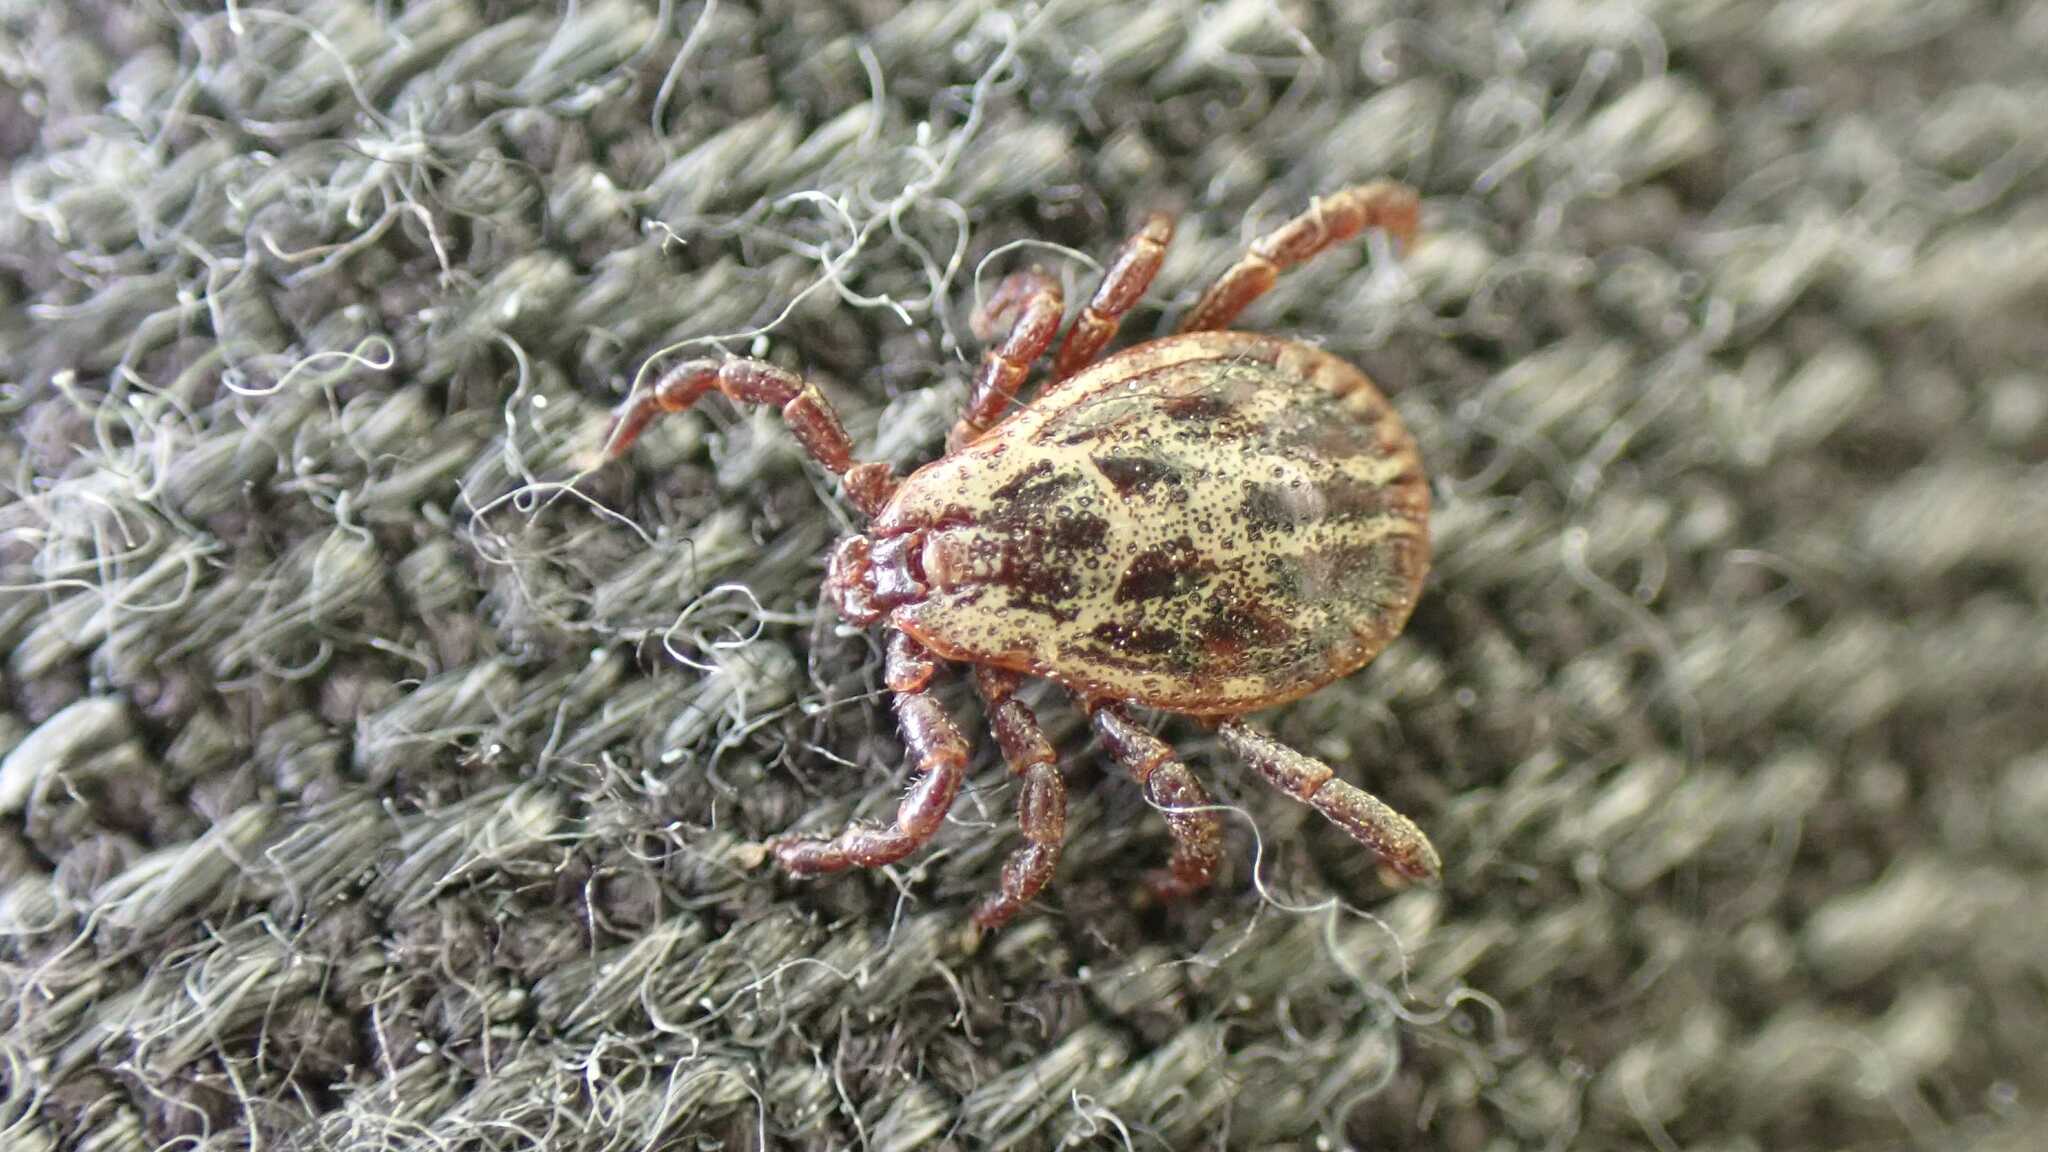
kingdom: Animalia
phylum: Arthropoda
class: Arachnida
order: Ixodida
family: Ixodidae
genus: Dermacentor
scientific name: Dermacentor reticulatus
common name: Ornate cow tick
